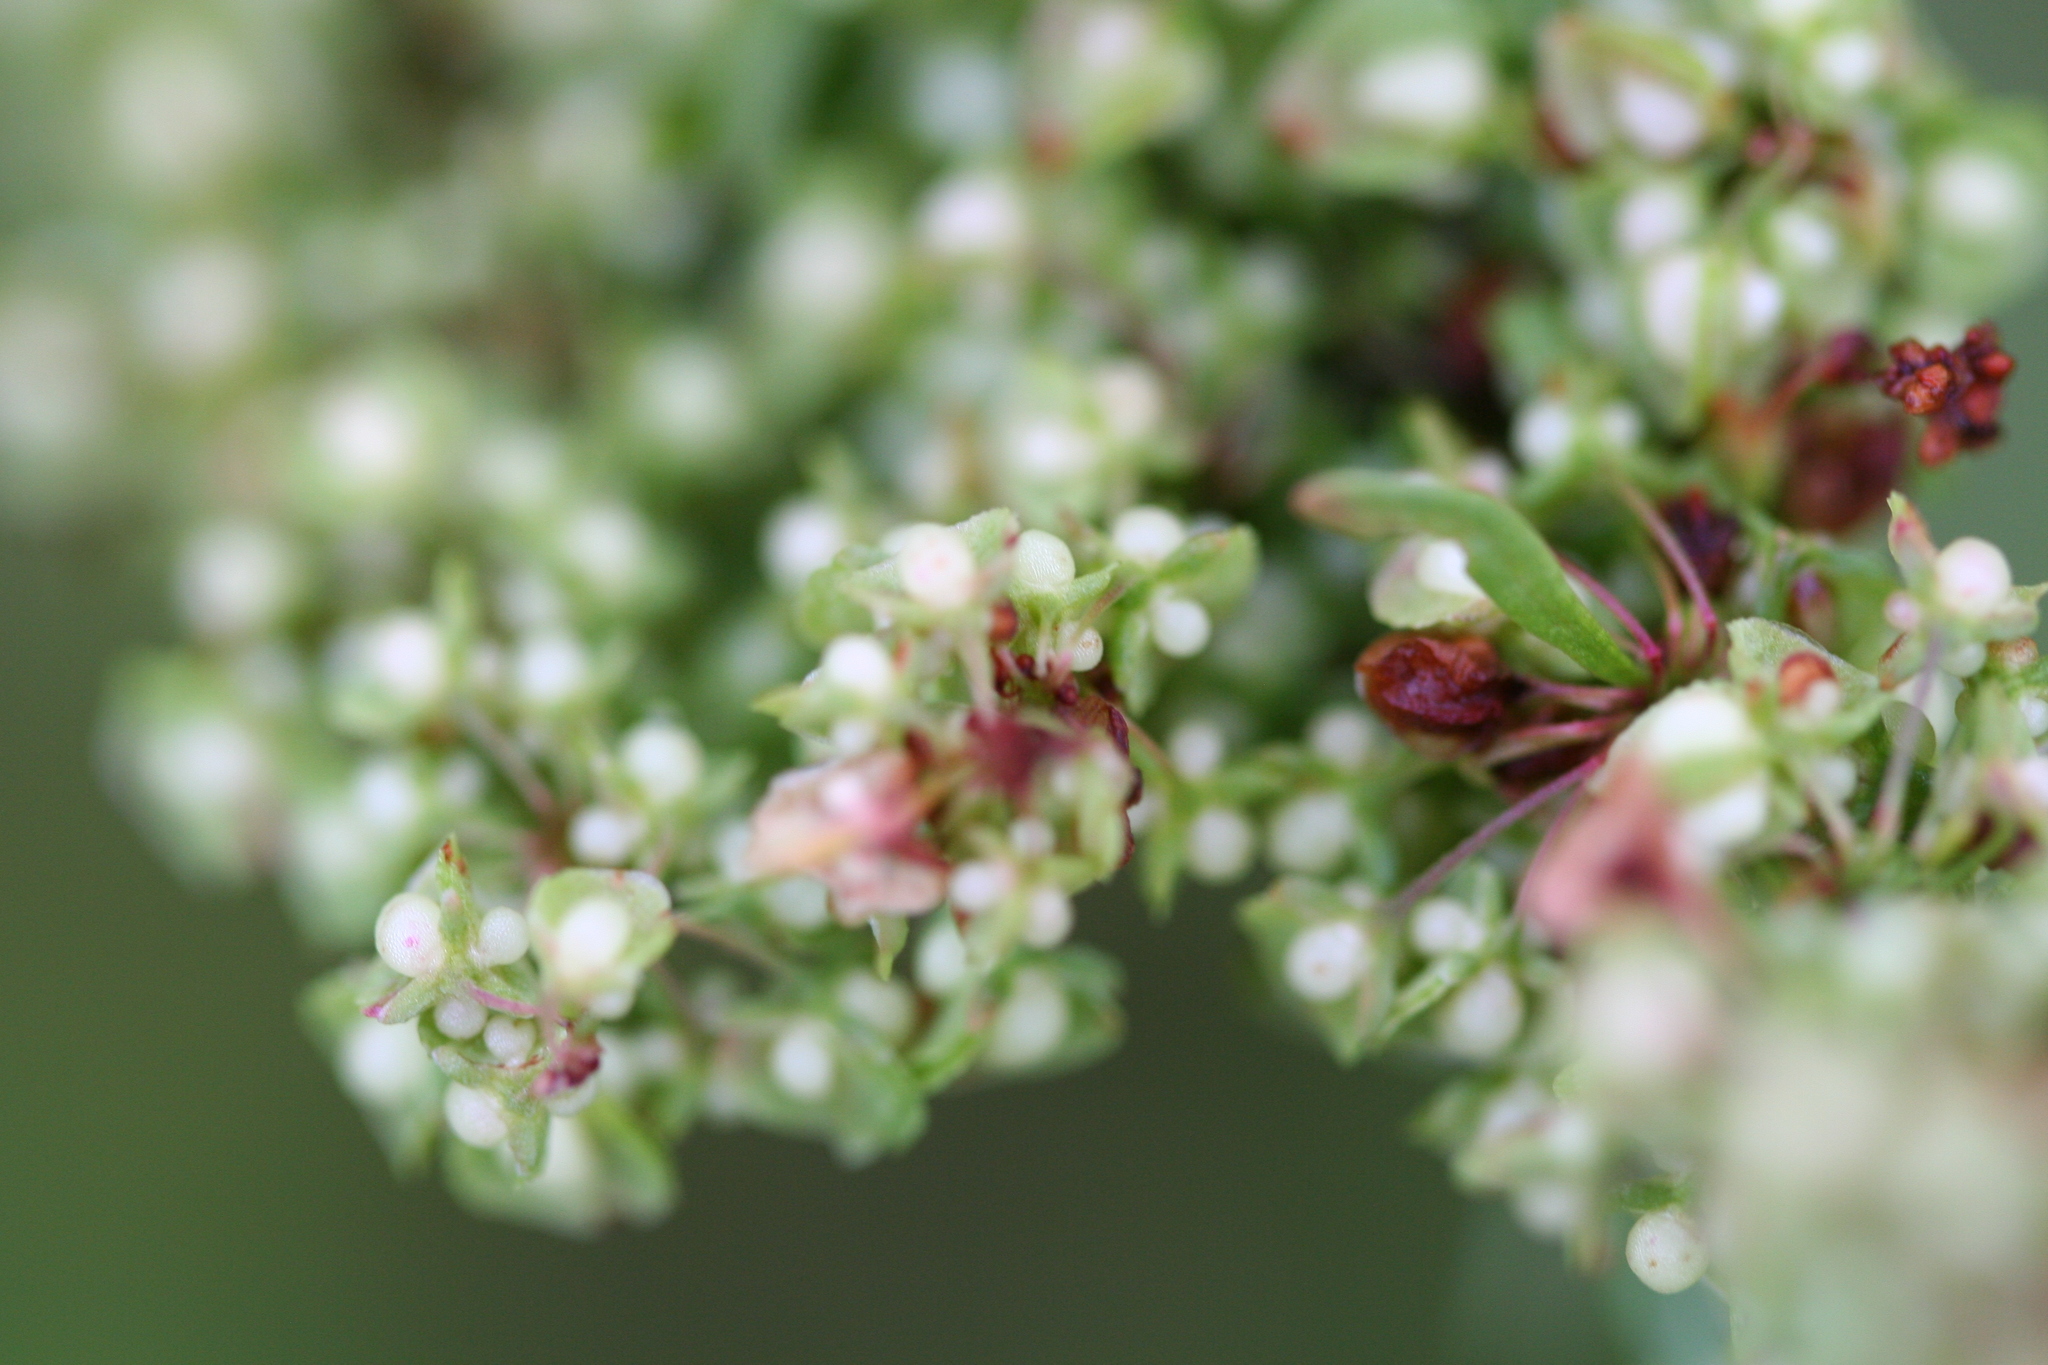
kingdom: Plantae
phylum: Tracheophyta
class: Magnoliopsida
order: Caryophyllales
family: Polygonaceae
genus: Rumex
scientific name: Rumex crispus
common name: Curled dock
